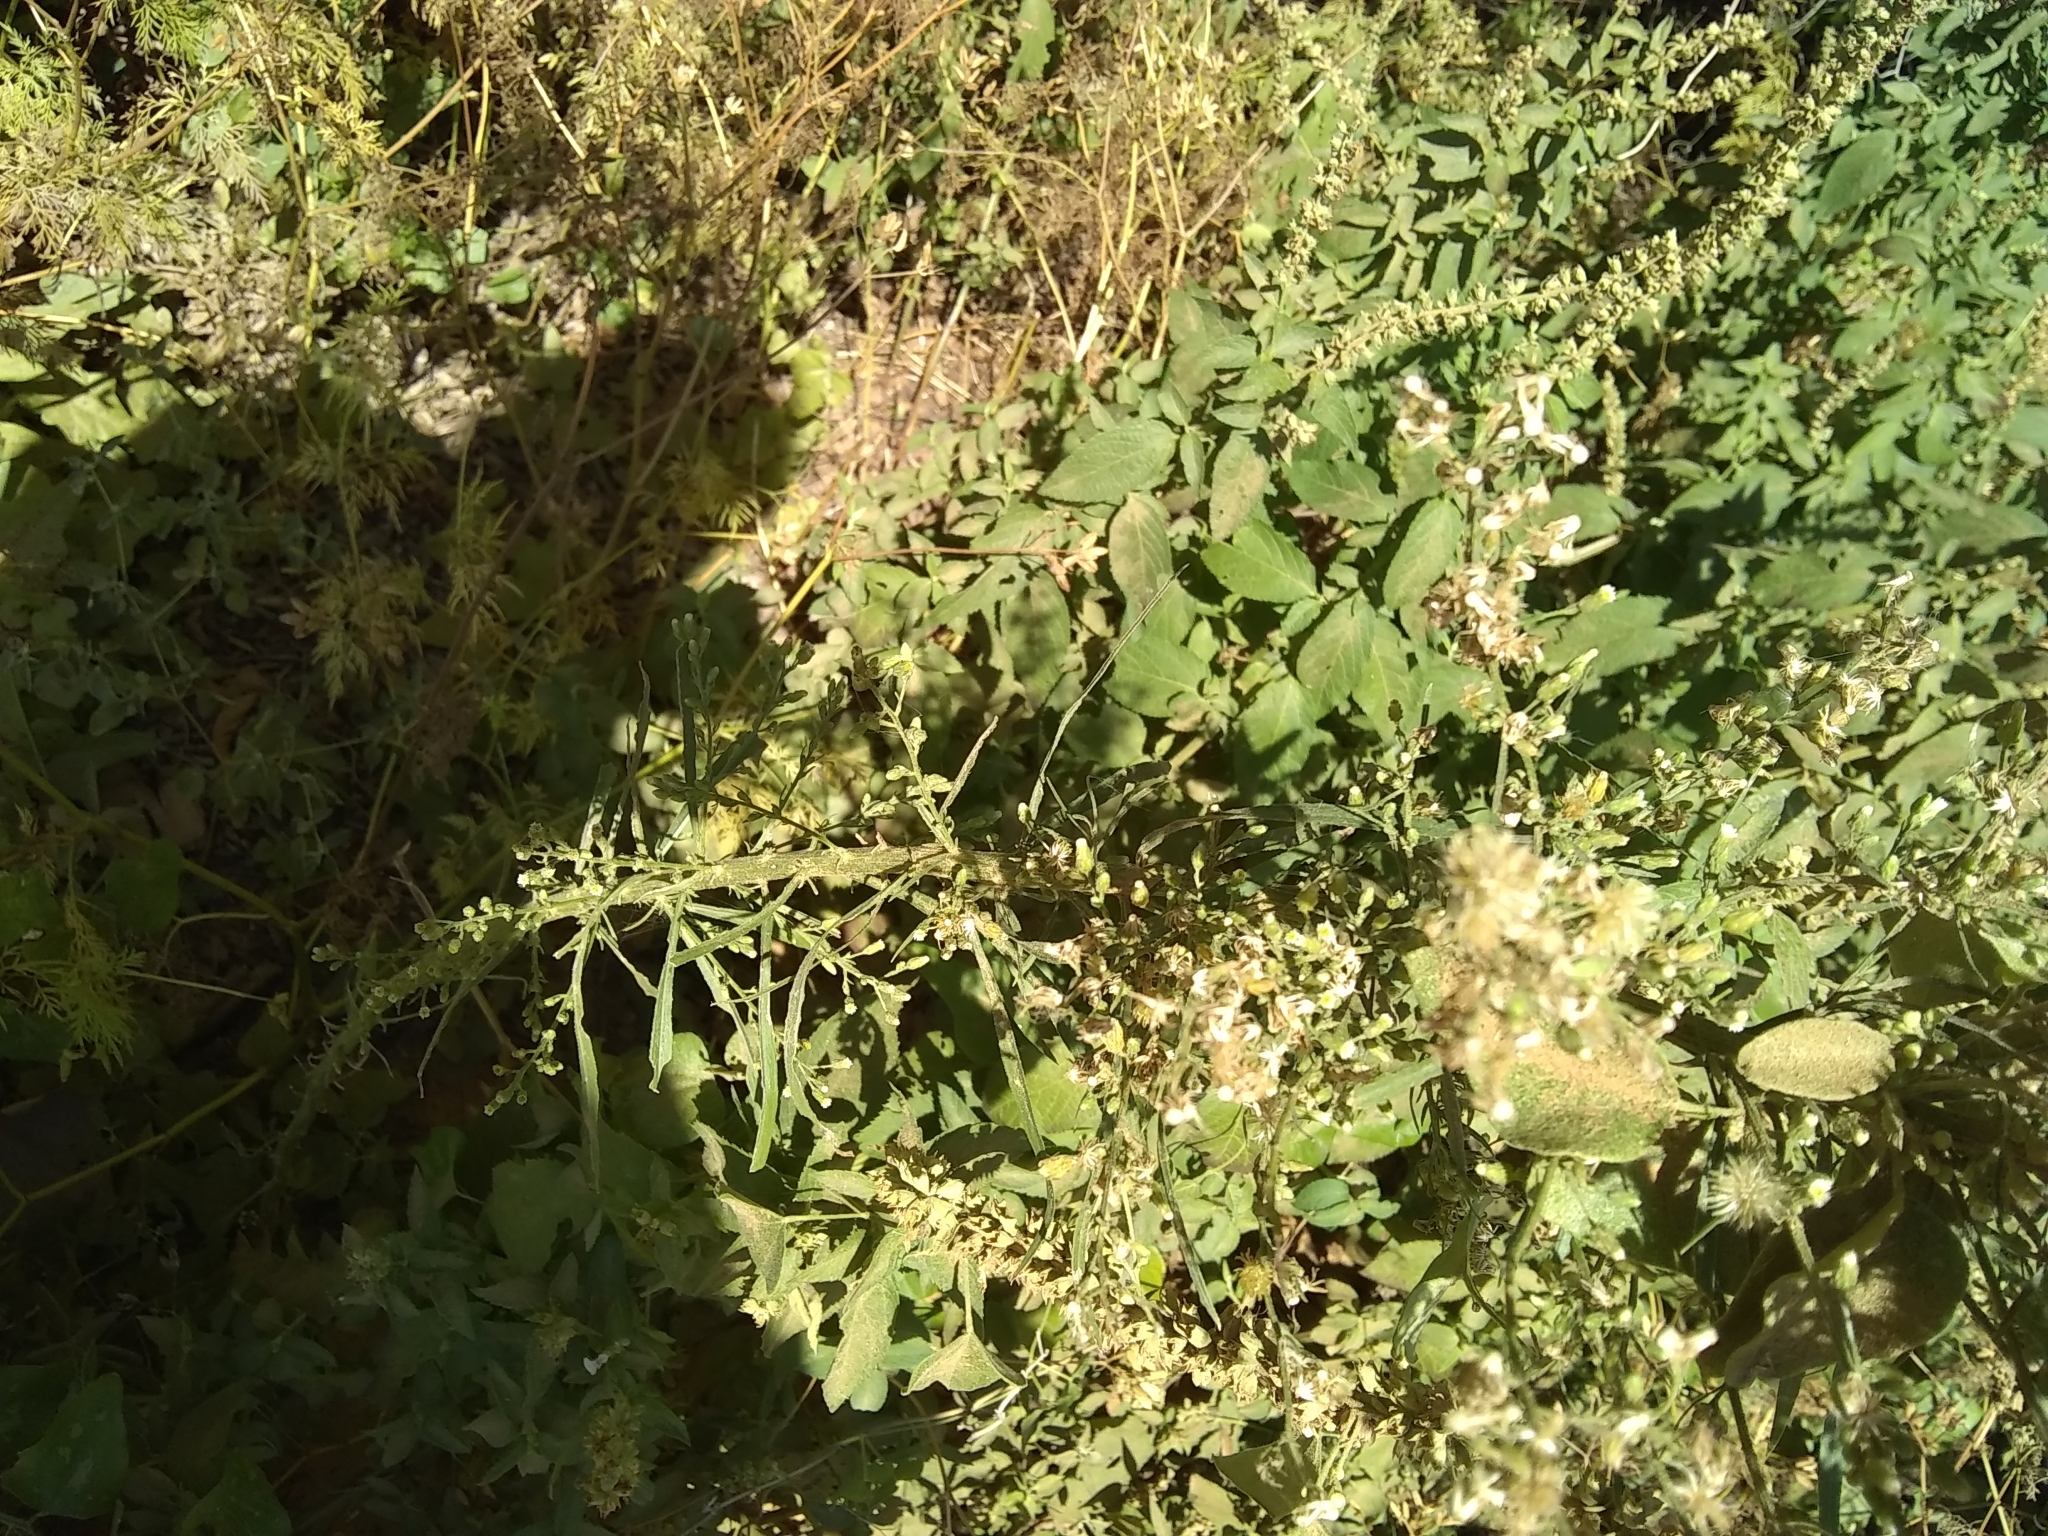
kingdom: Plantae
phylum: Tracheophyta
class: Magnoliopsida
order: Asterales
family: Asteraceae
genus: Erigeron
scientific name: Erigeron canadensis
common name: Canadian fleabane
